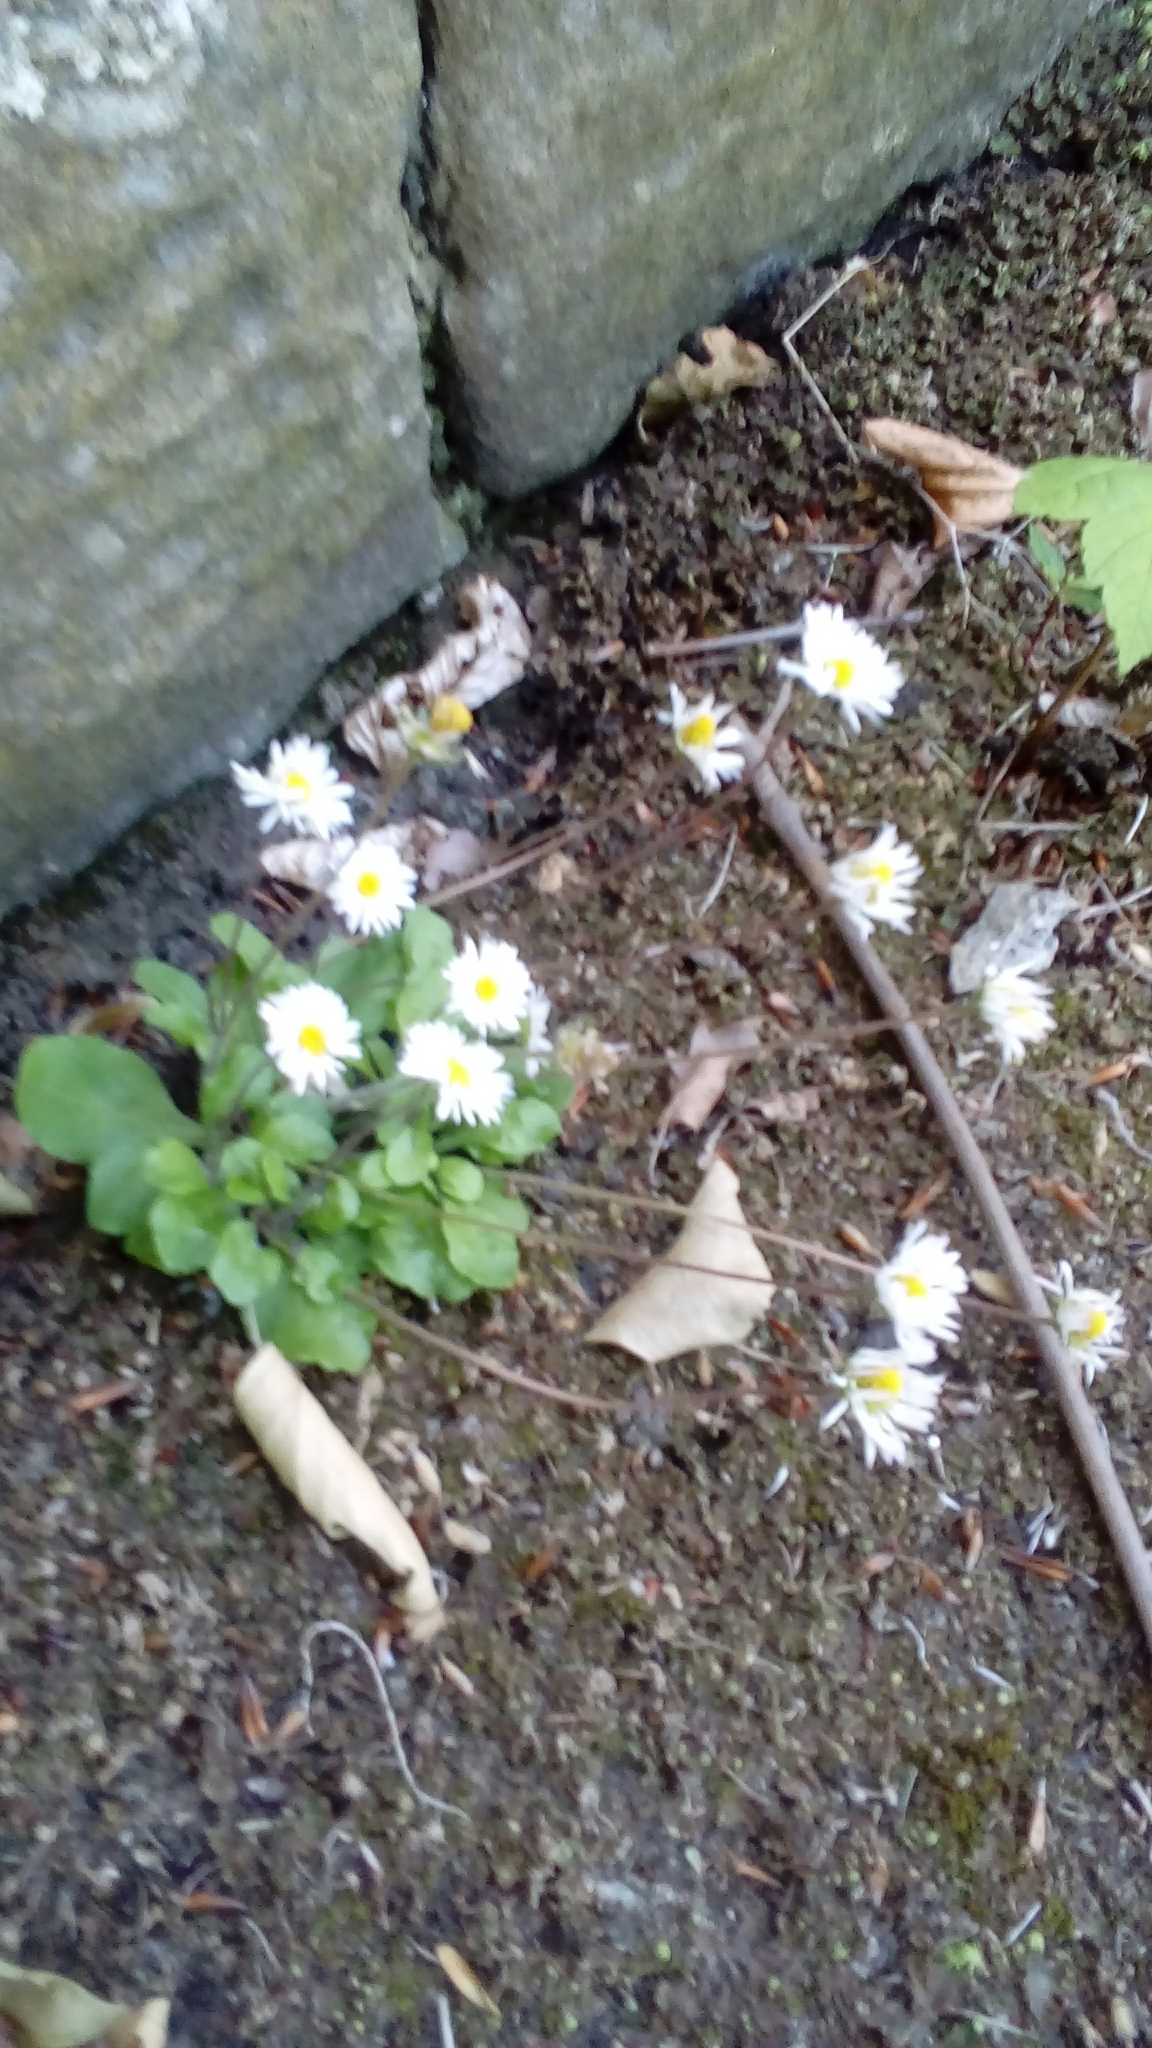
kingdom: Plantae
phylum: Tracheophyta
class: Magnoliopsida
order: Asterales
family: Asteraceae
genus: Bellis
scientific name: Bellis perennis
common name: Lawndaisy
